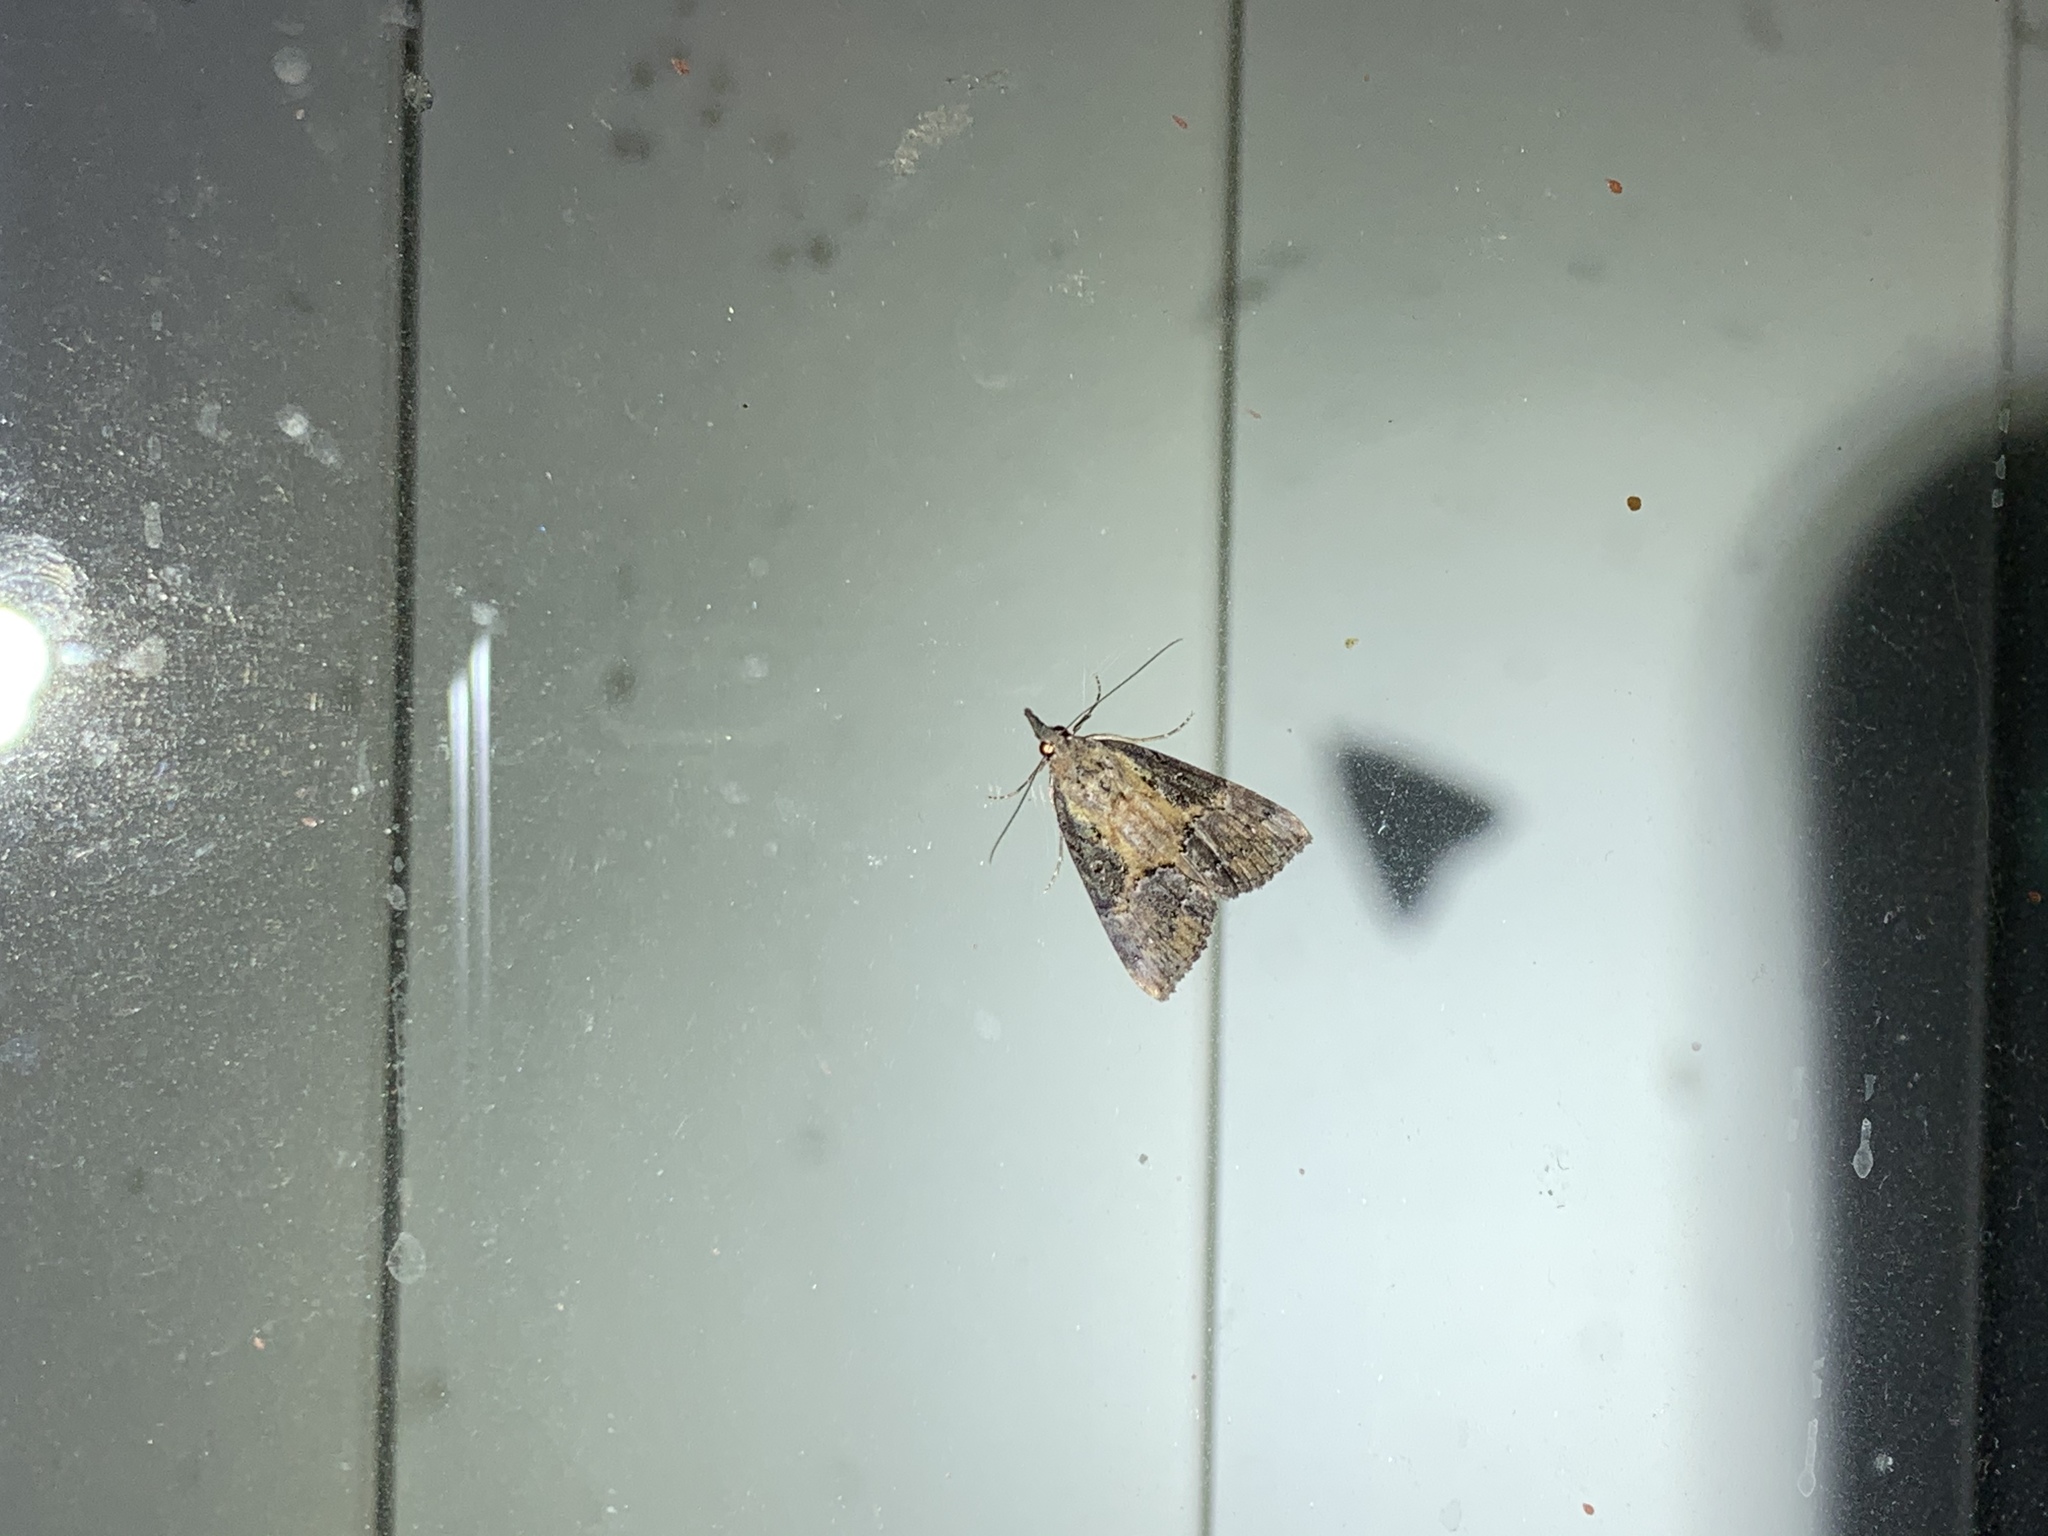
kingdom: Animalia
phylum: Arthropoda
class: Insecta
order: Lepidoptera
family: Erebidae
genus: Hypena
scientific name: Hypena scabra
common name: Green cloverworm
